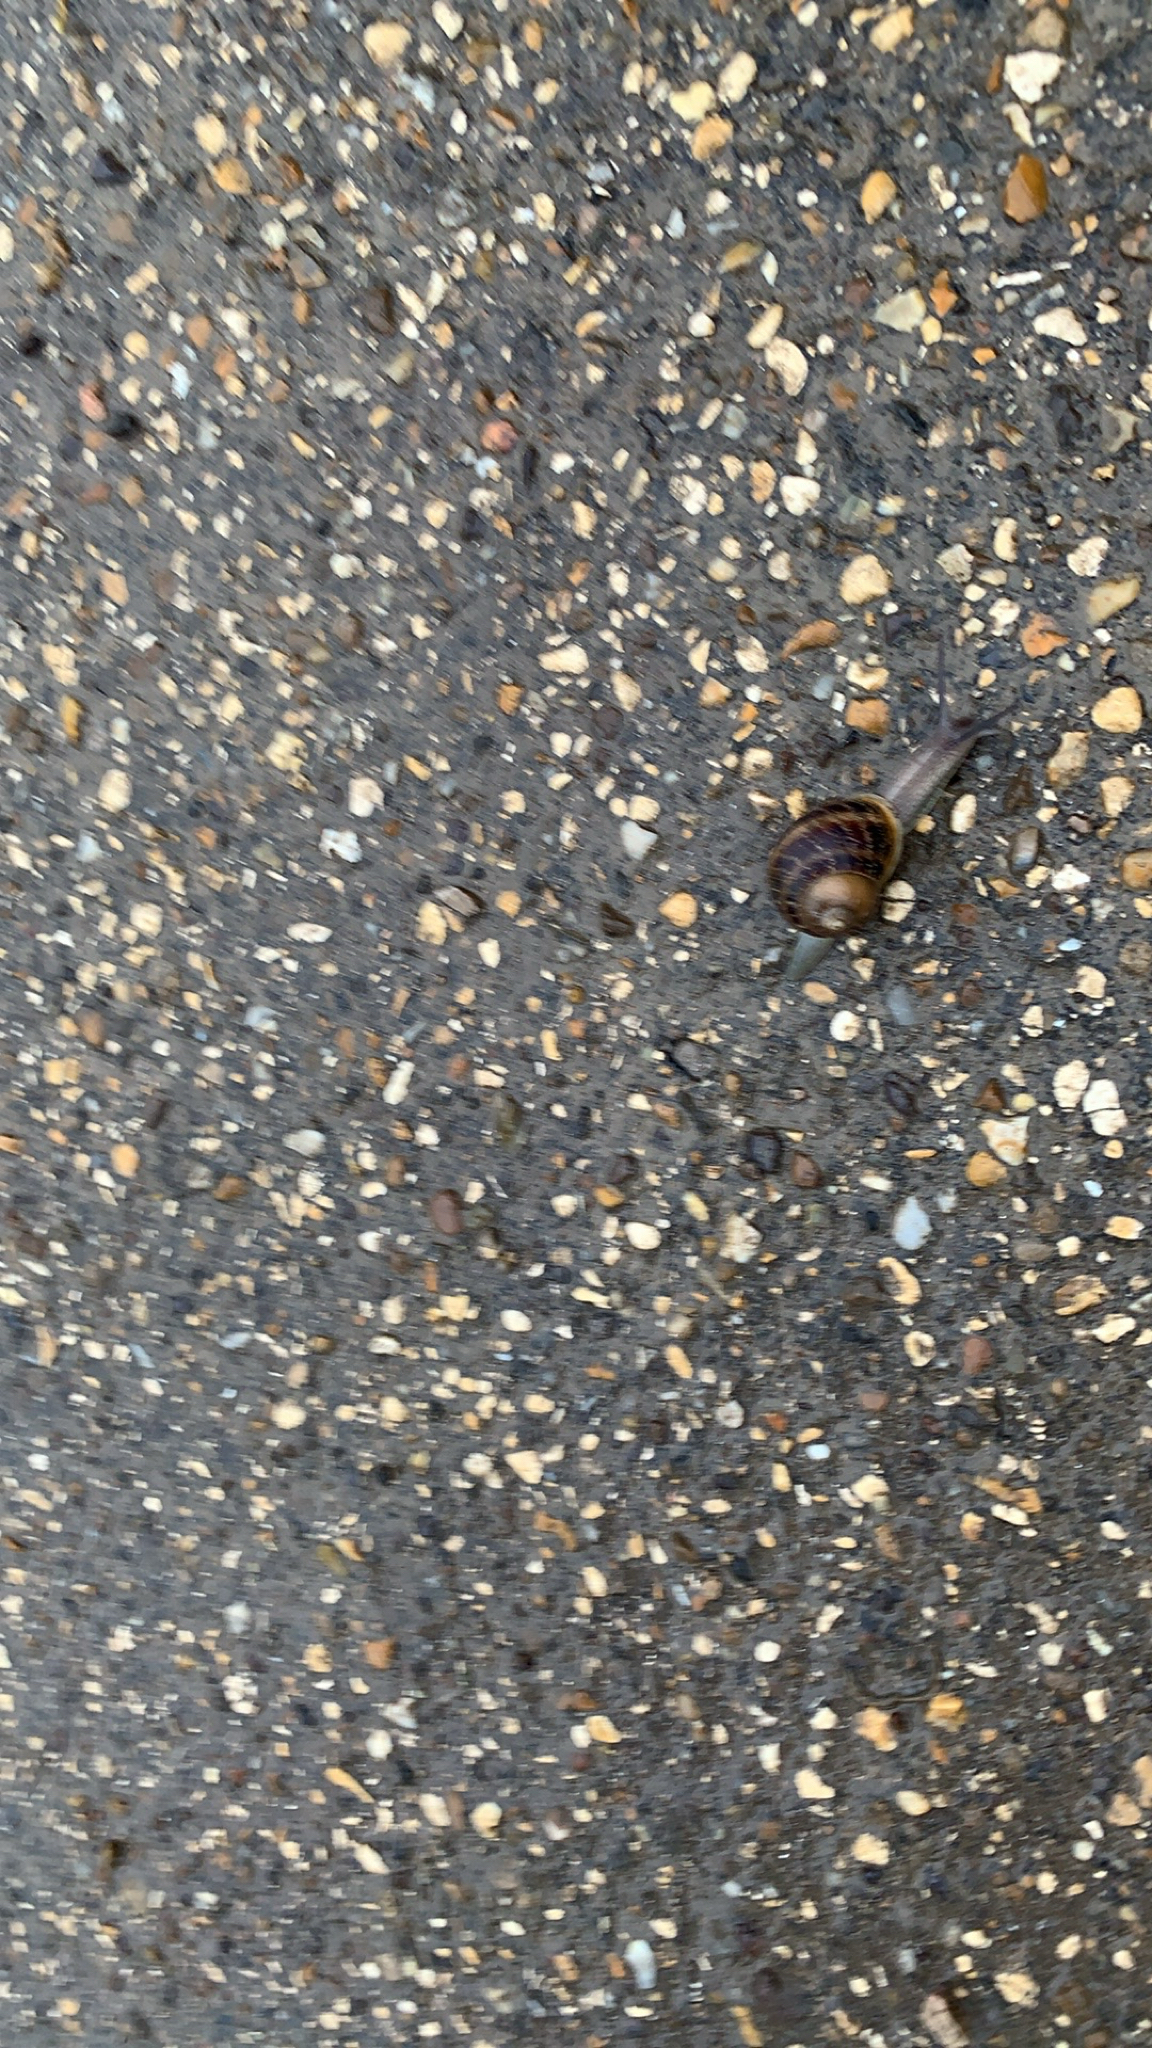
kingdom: Animalia
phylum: Mollusca
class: Gastropoda
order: Stylommatophora
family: Helicidae
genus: Cornu
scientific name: Cornu aspersum
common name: Brown garden snail
